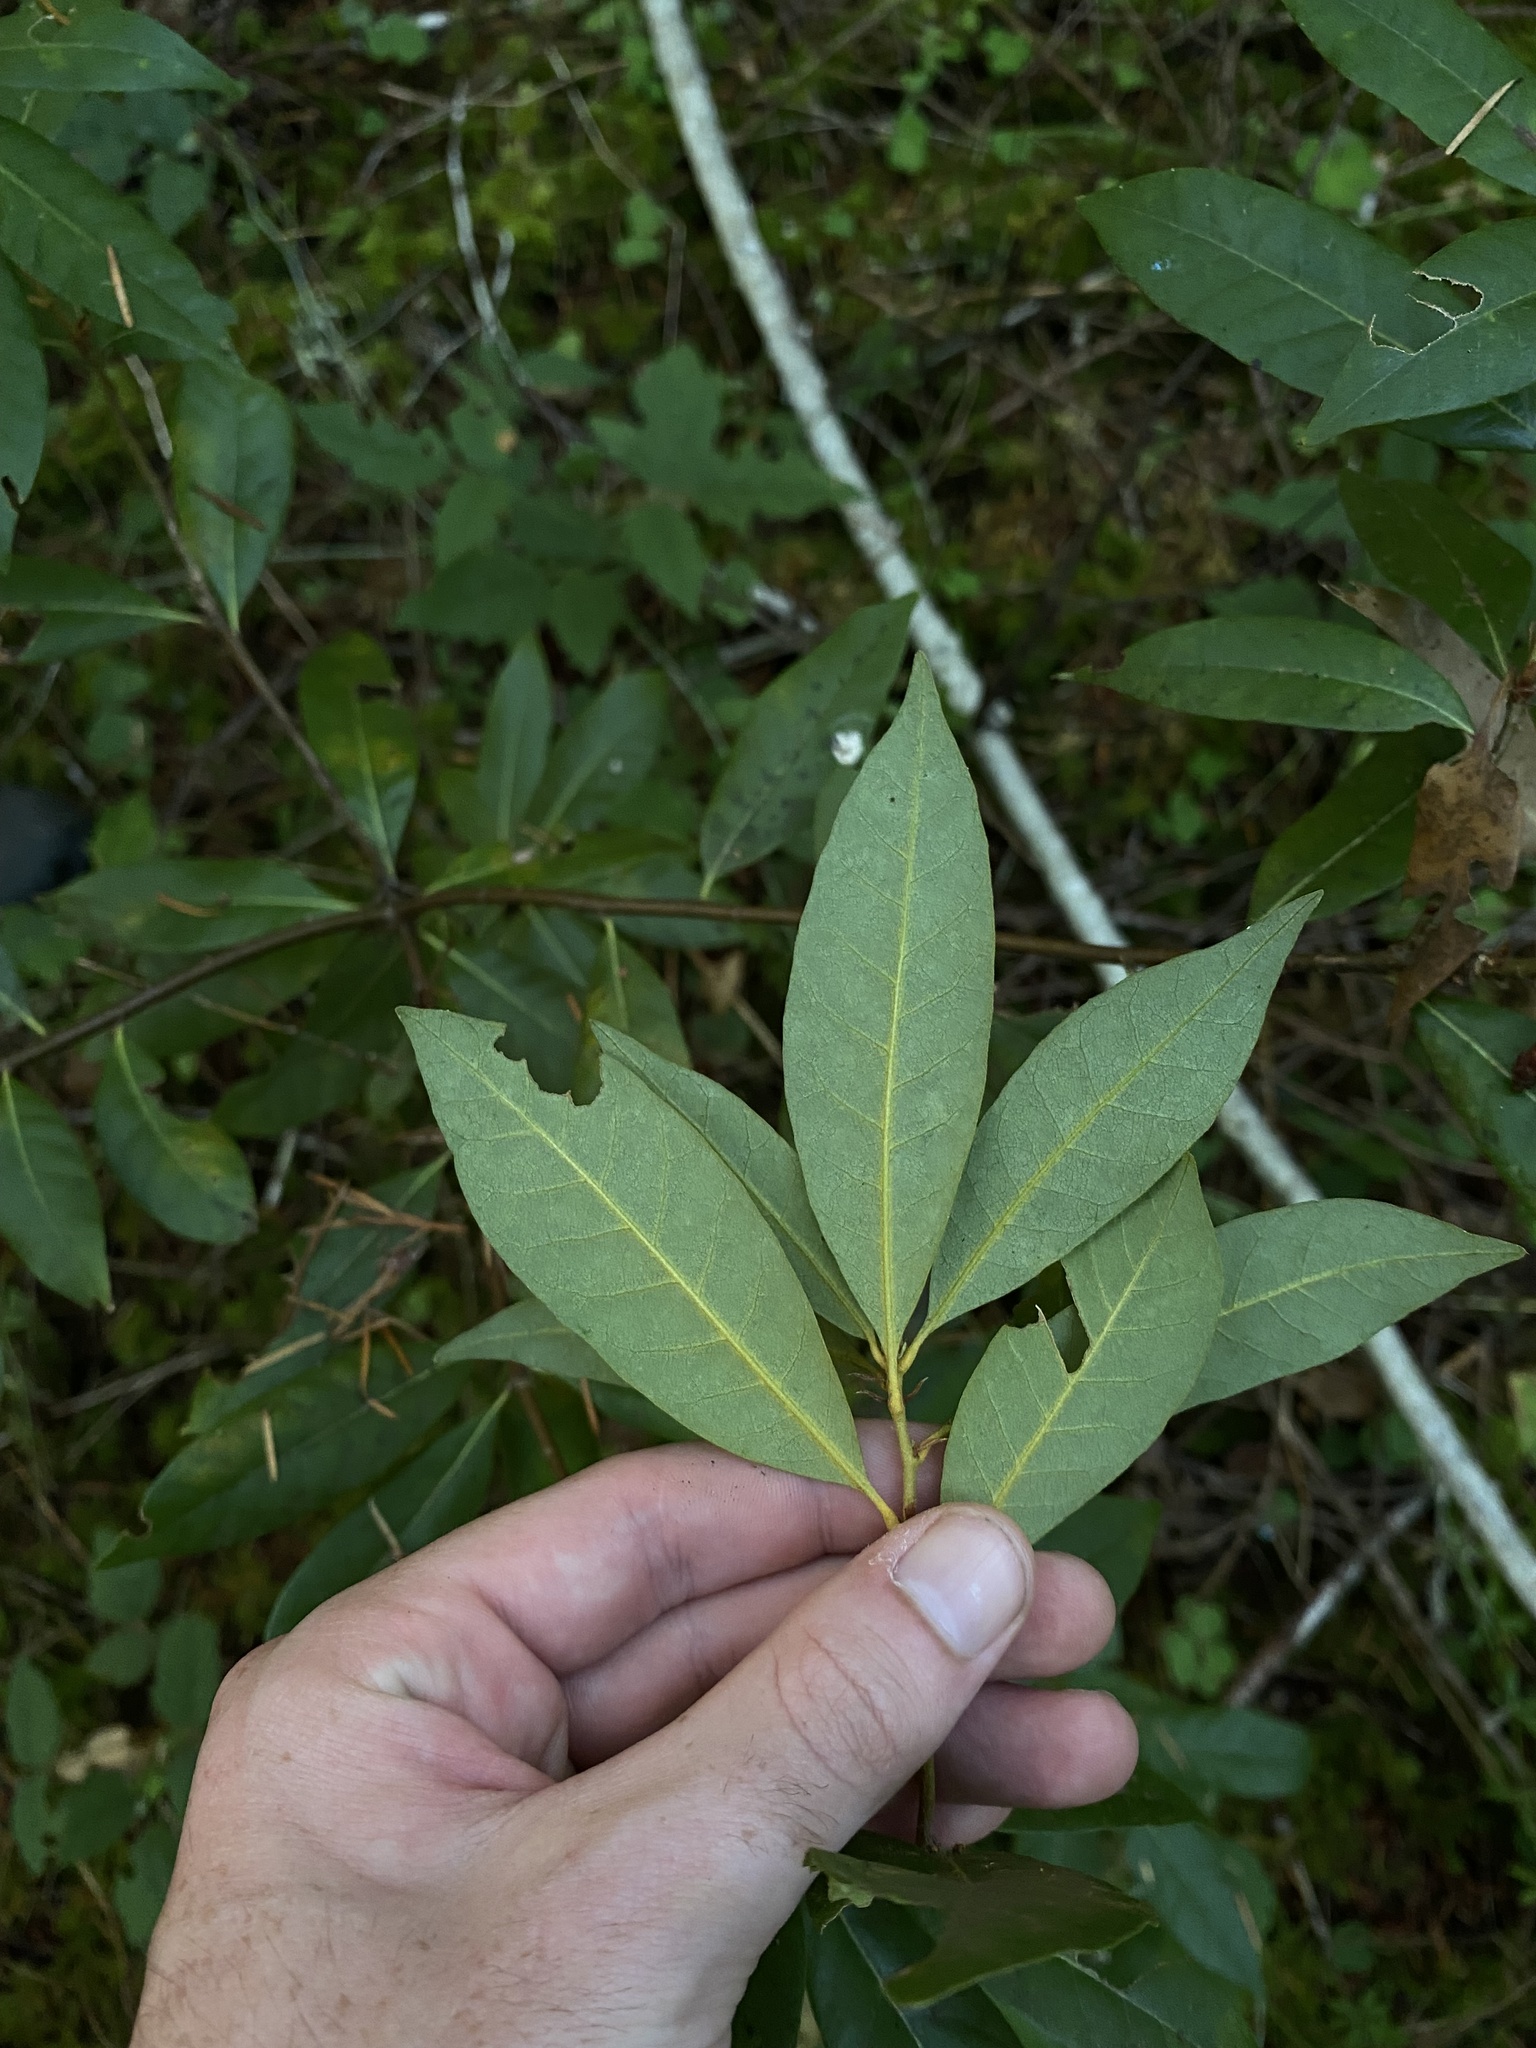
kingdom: Plantae
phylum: Tracheophyta
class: Magnoliopsida
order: Fagales
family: Fagaceae
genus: Chrysolepis
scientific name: Chrysolepis chrysophylla
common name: Giant chinquapin
